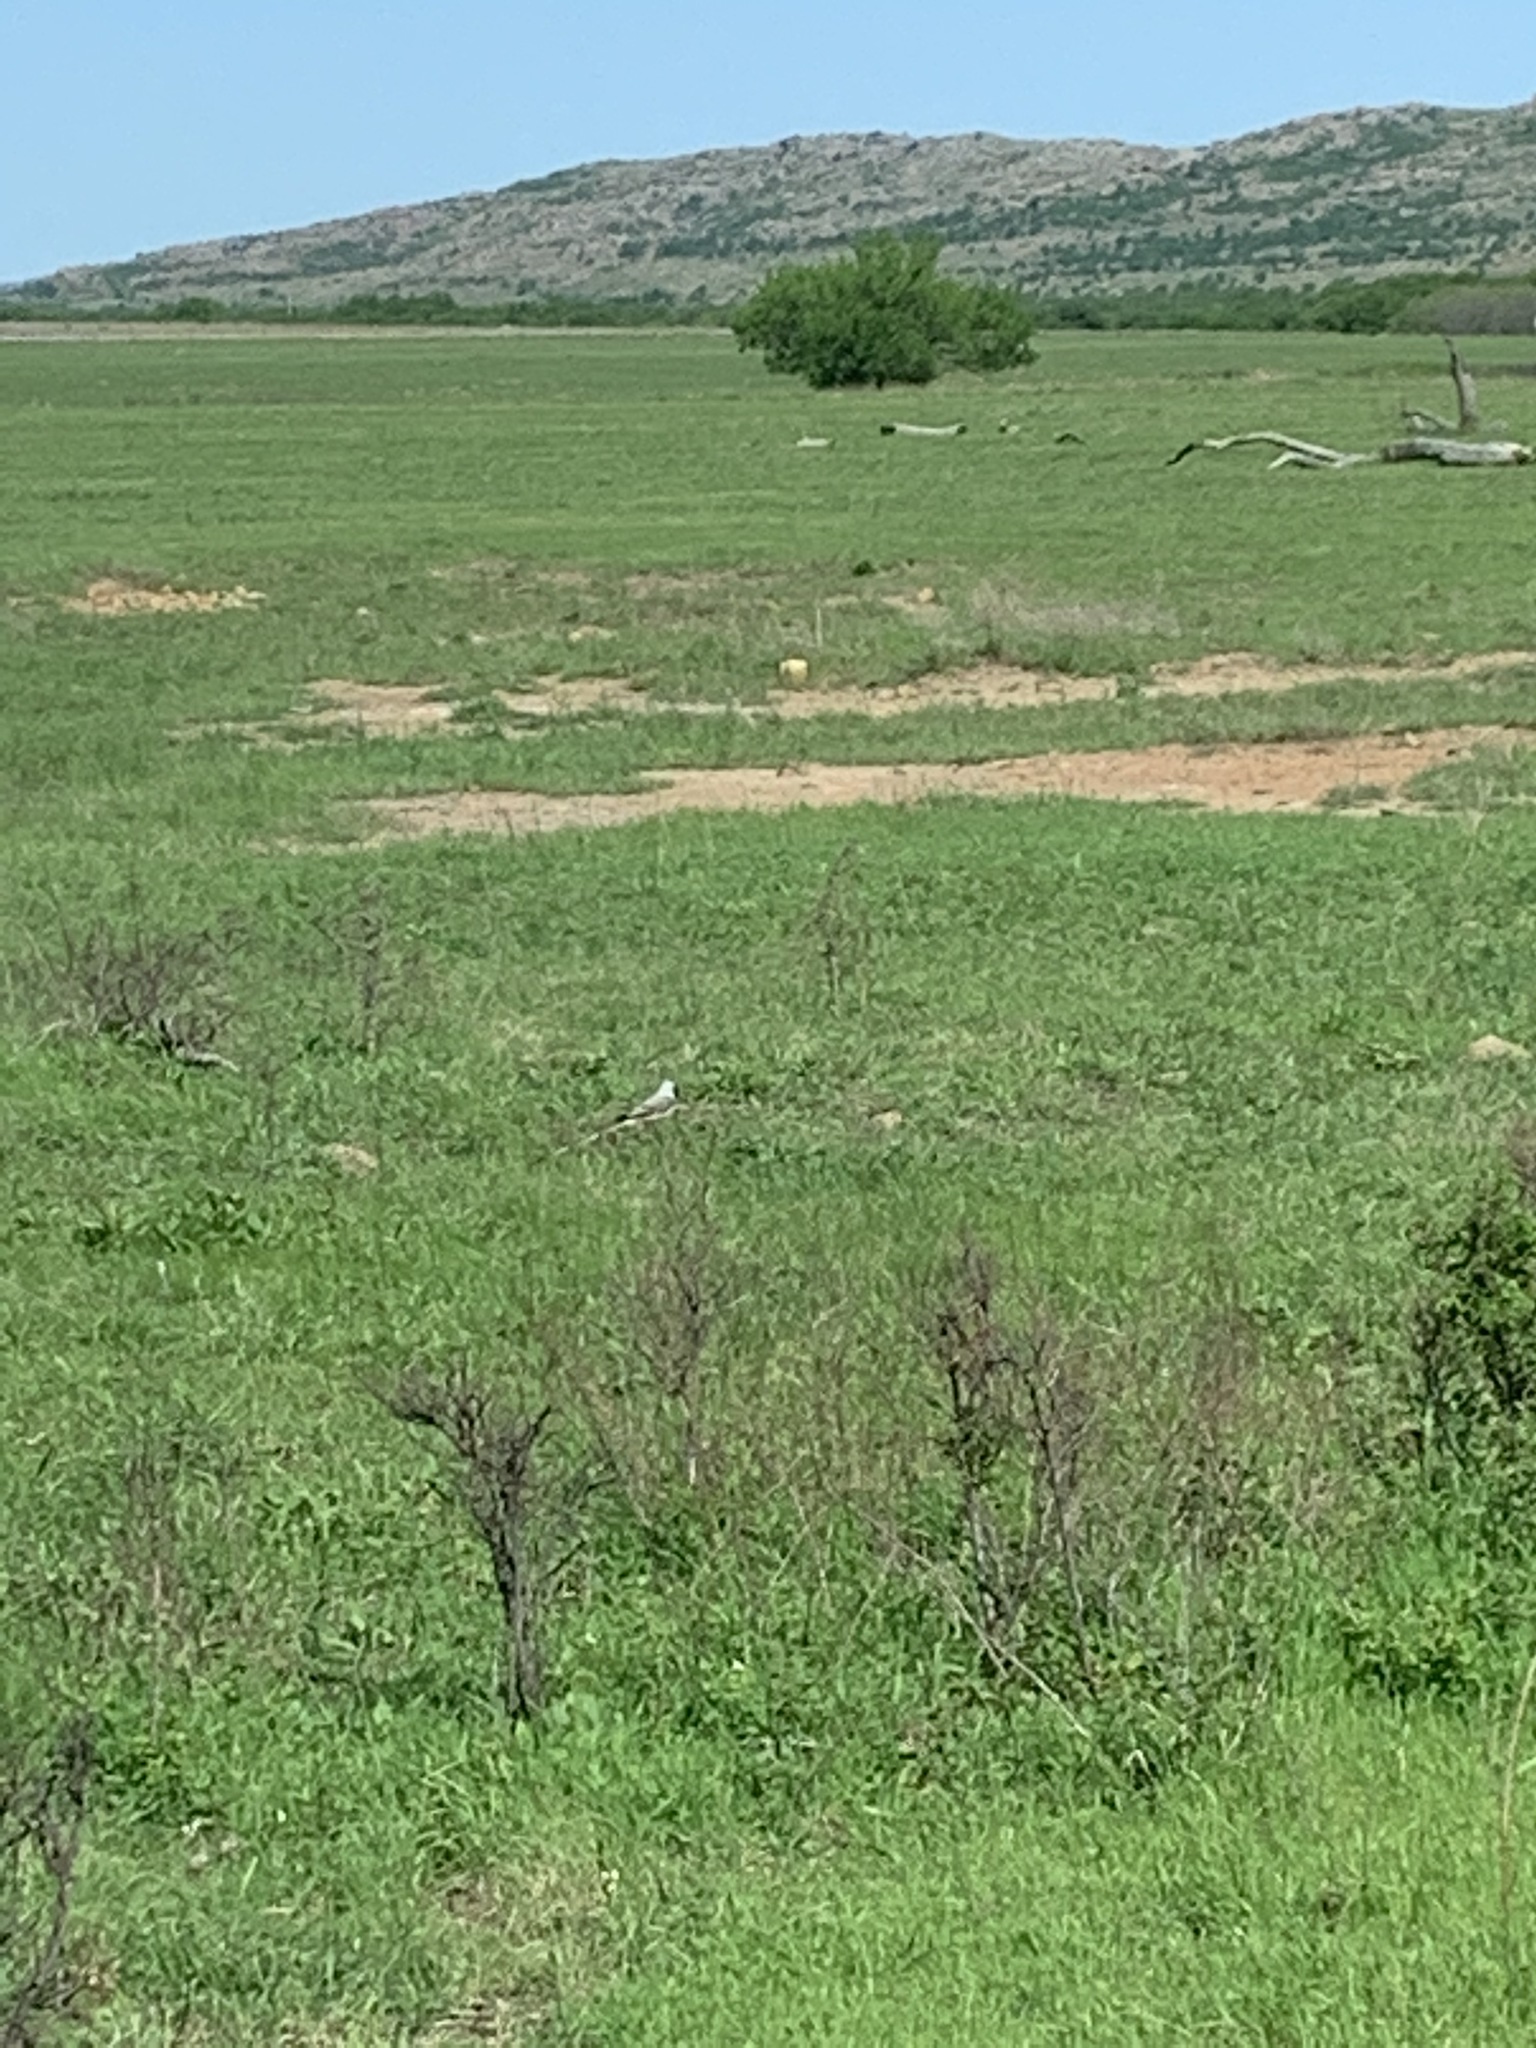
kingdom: Animalia
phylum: Chordata
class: Aves
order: Passeriformes
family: Tyrannidae
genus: Tyrannus
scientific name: Tyrannus forficatus
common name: Scissor-tailed flycatcher
